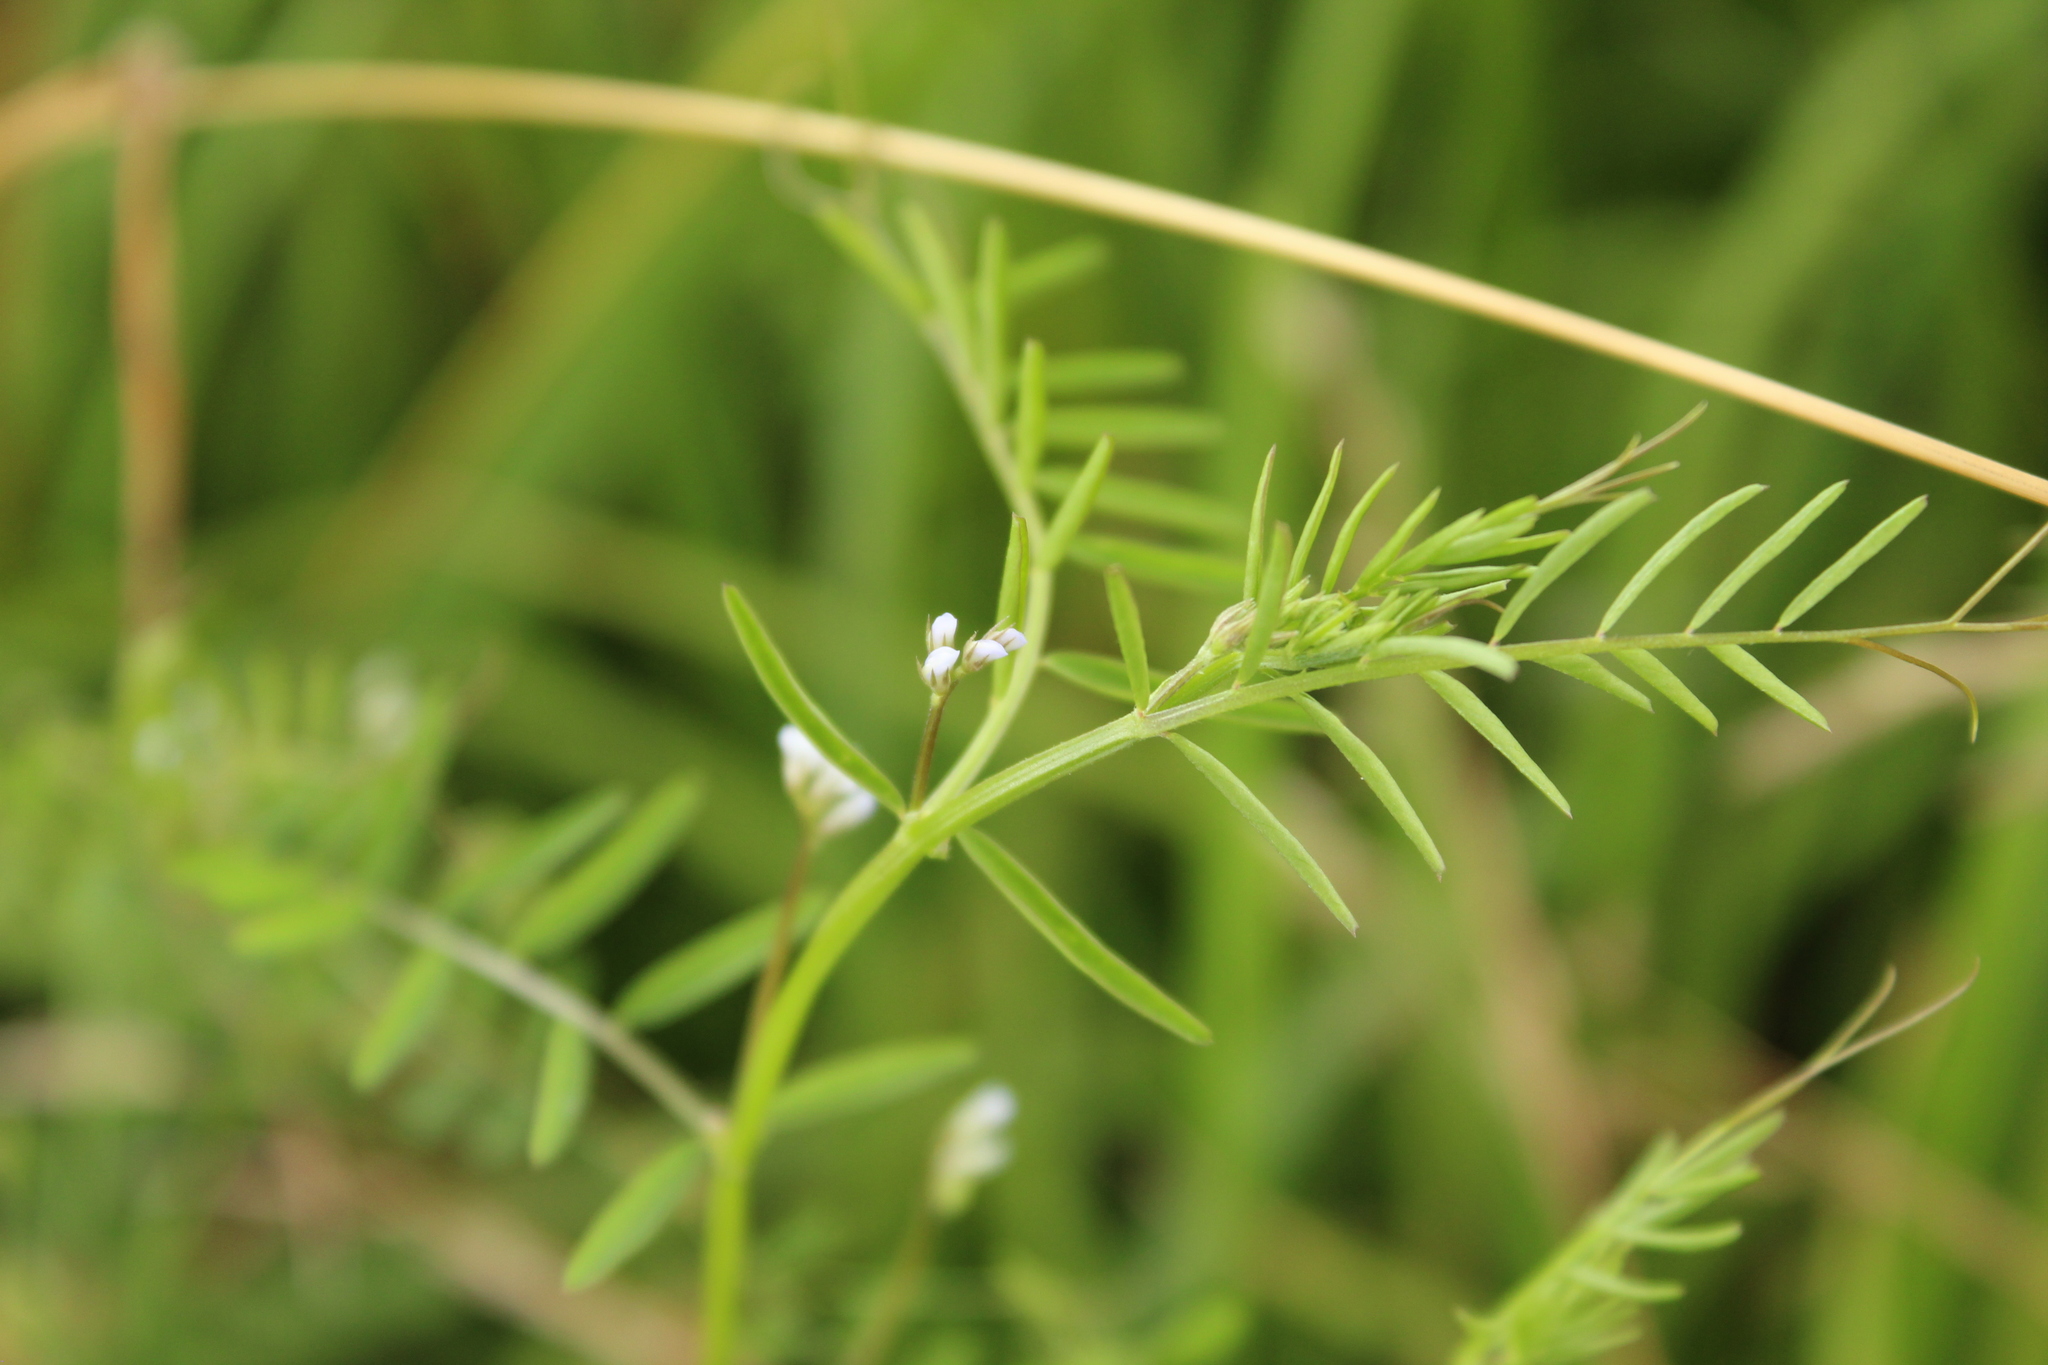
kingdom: Plantae
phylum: Tracheophyta
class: Magnoliopsida
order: Fabales
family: Fabaceae
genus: Vicia
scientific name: Vicia hirsuta
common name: Tiny vetch
